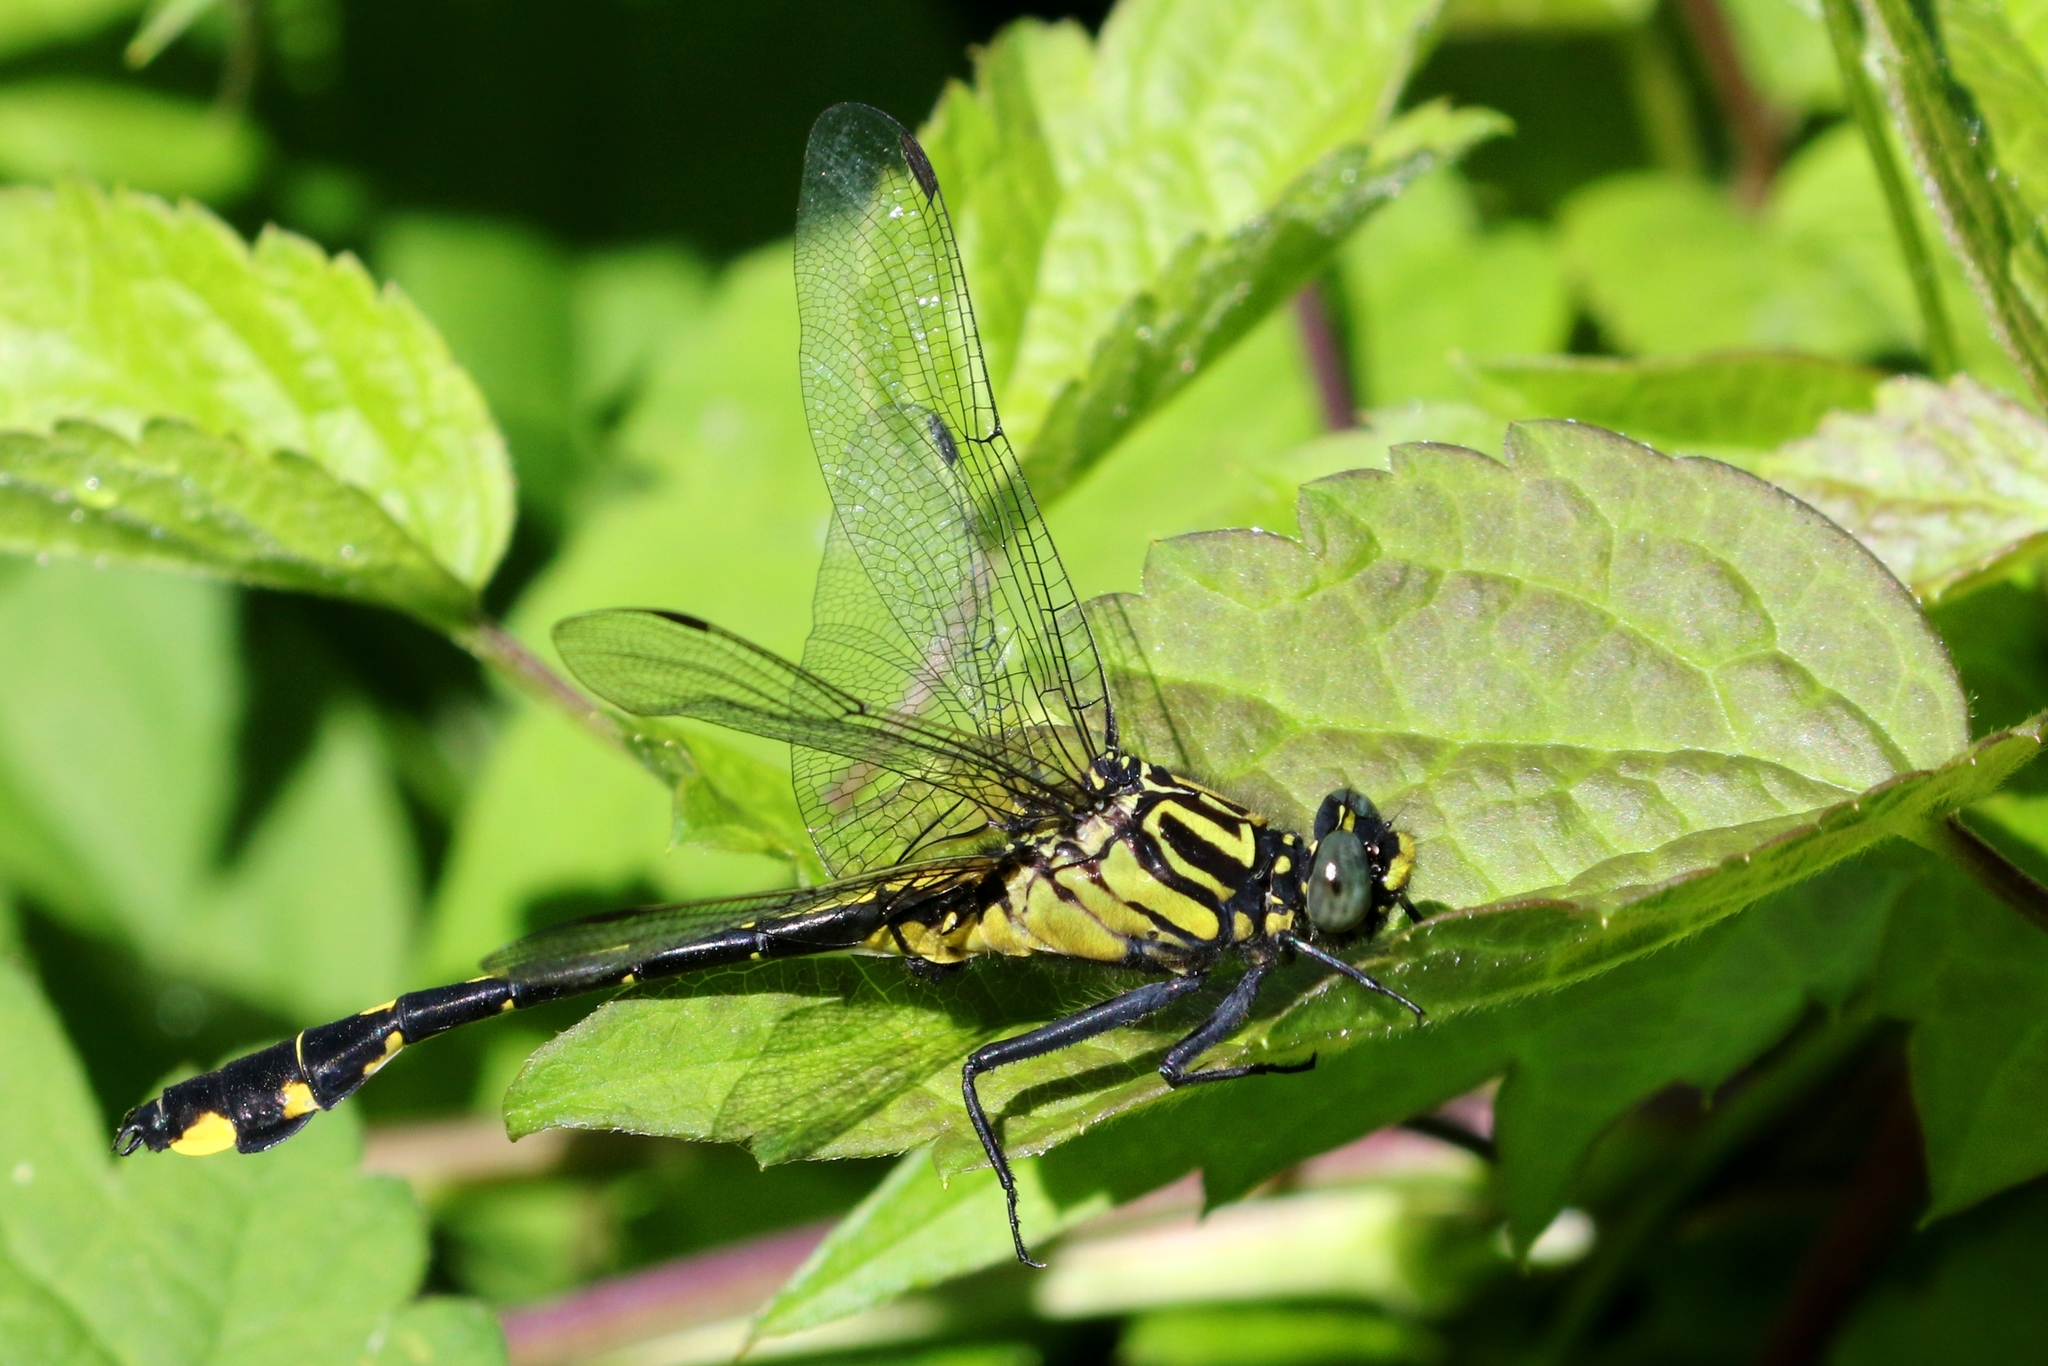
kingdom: Animalia
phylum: Arthropoda
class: Insecta
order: Odonata
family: Gomphidae
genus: Gomphurus
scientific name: Gomphurus vastus
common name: Cobra clubtail
